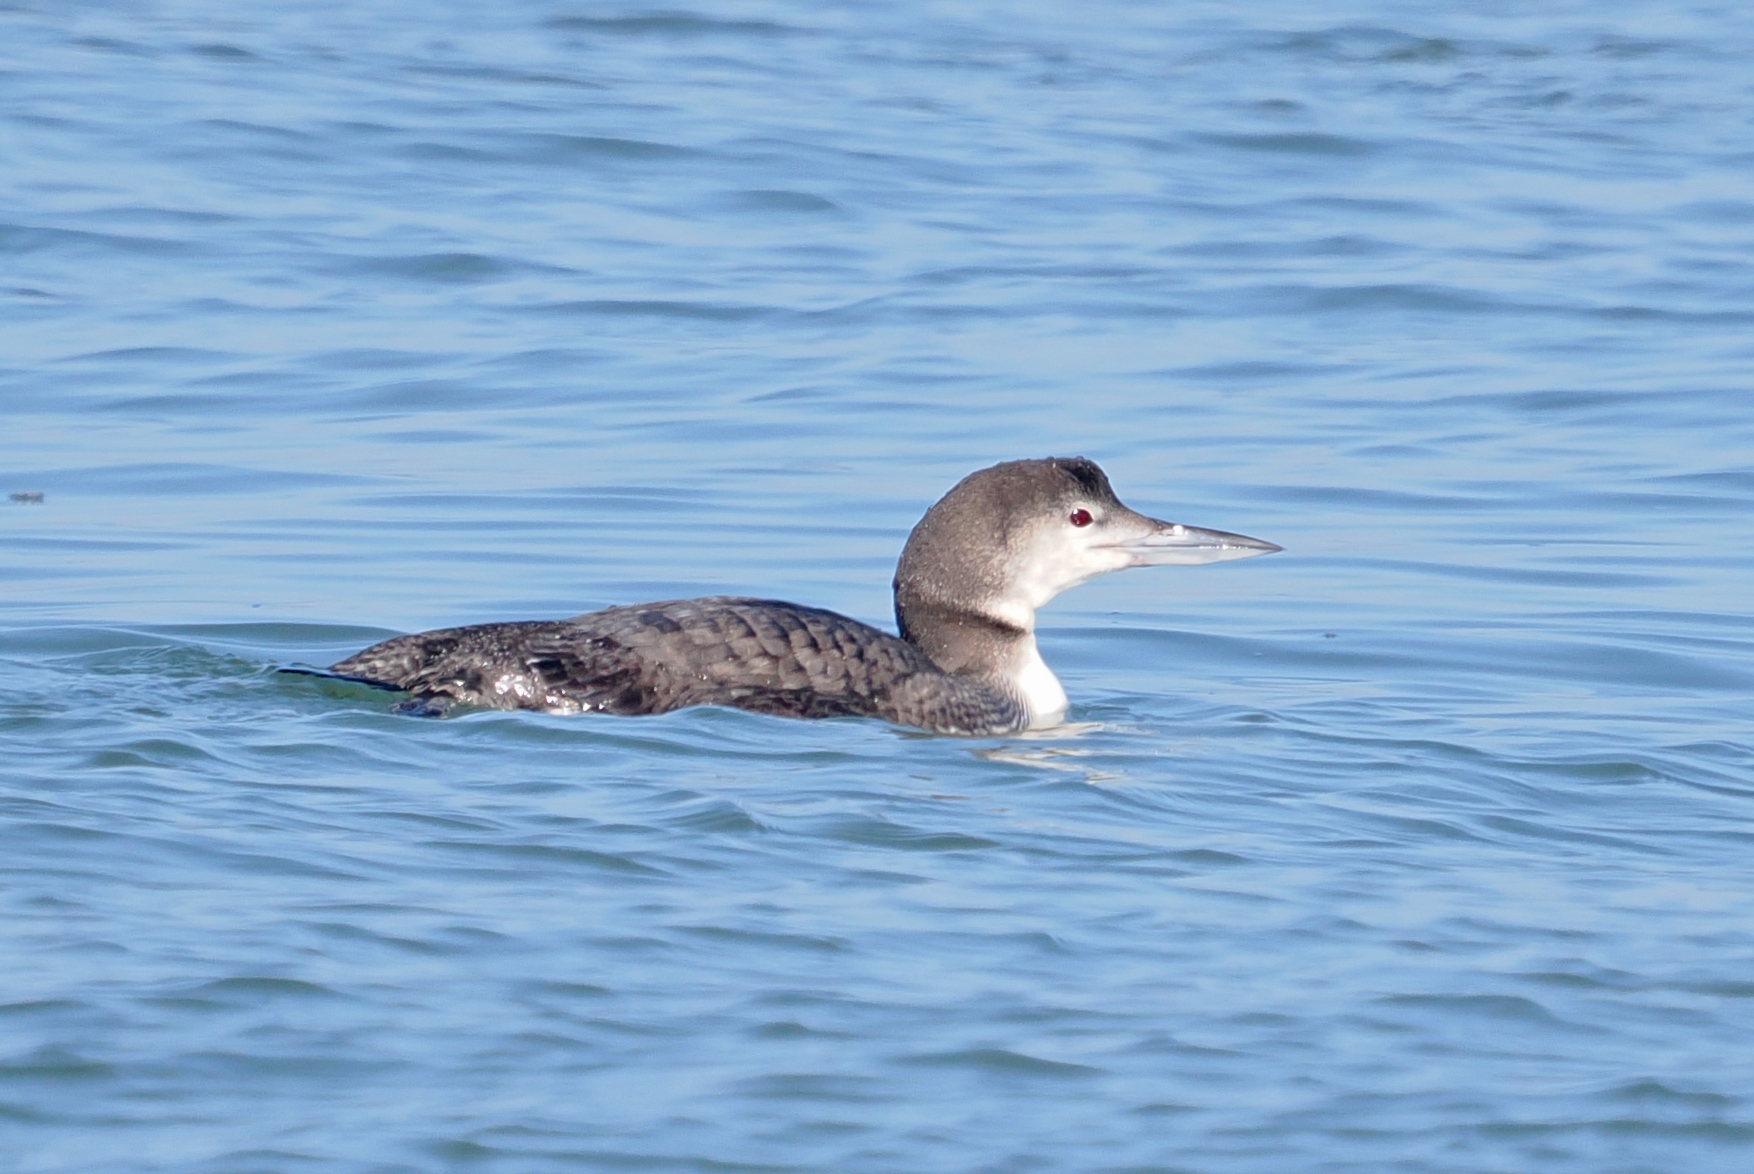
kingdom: Animalia
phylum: Chordata
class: Aves
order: Gaviiformes
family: Gaviidae
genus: Gavia
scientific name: Gavia immer
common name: Common loon
